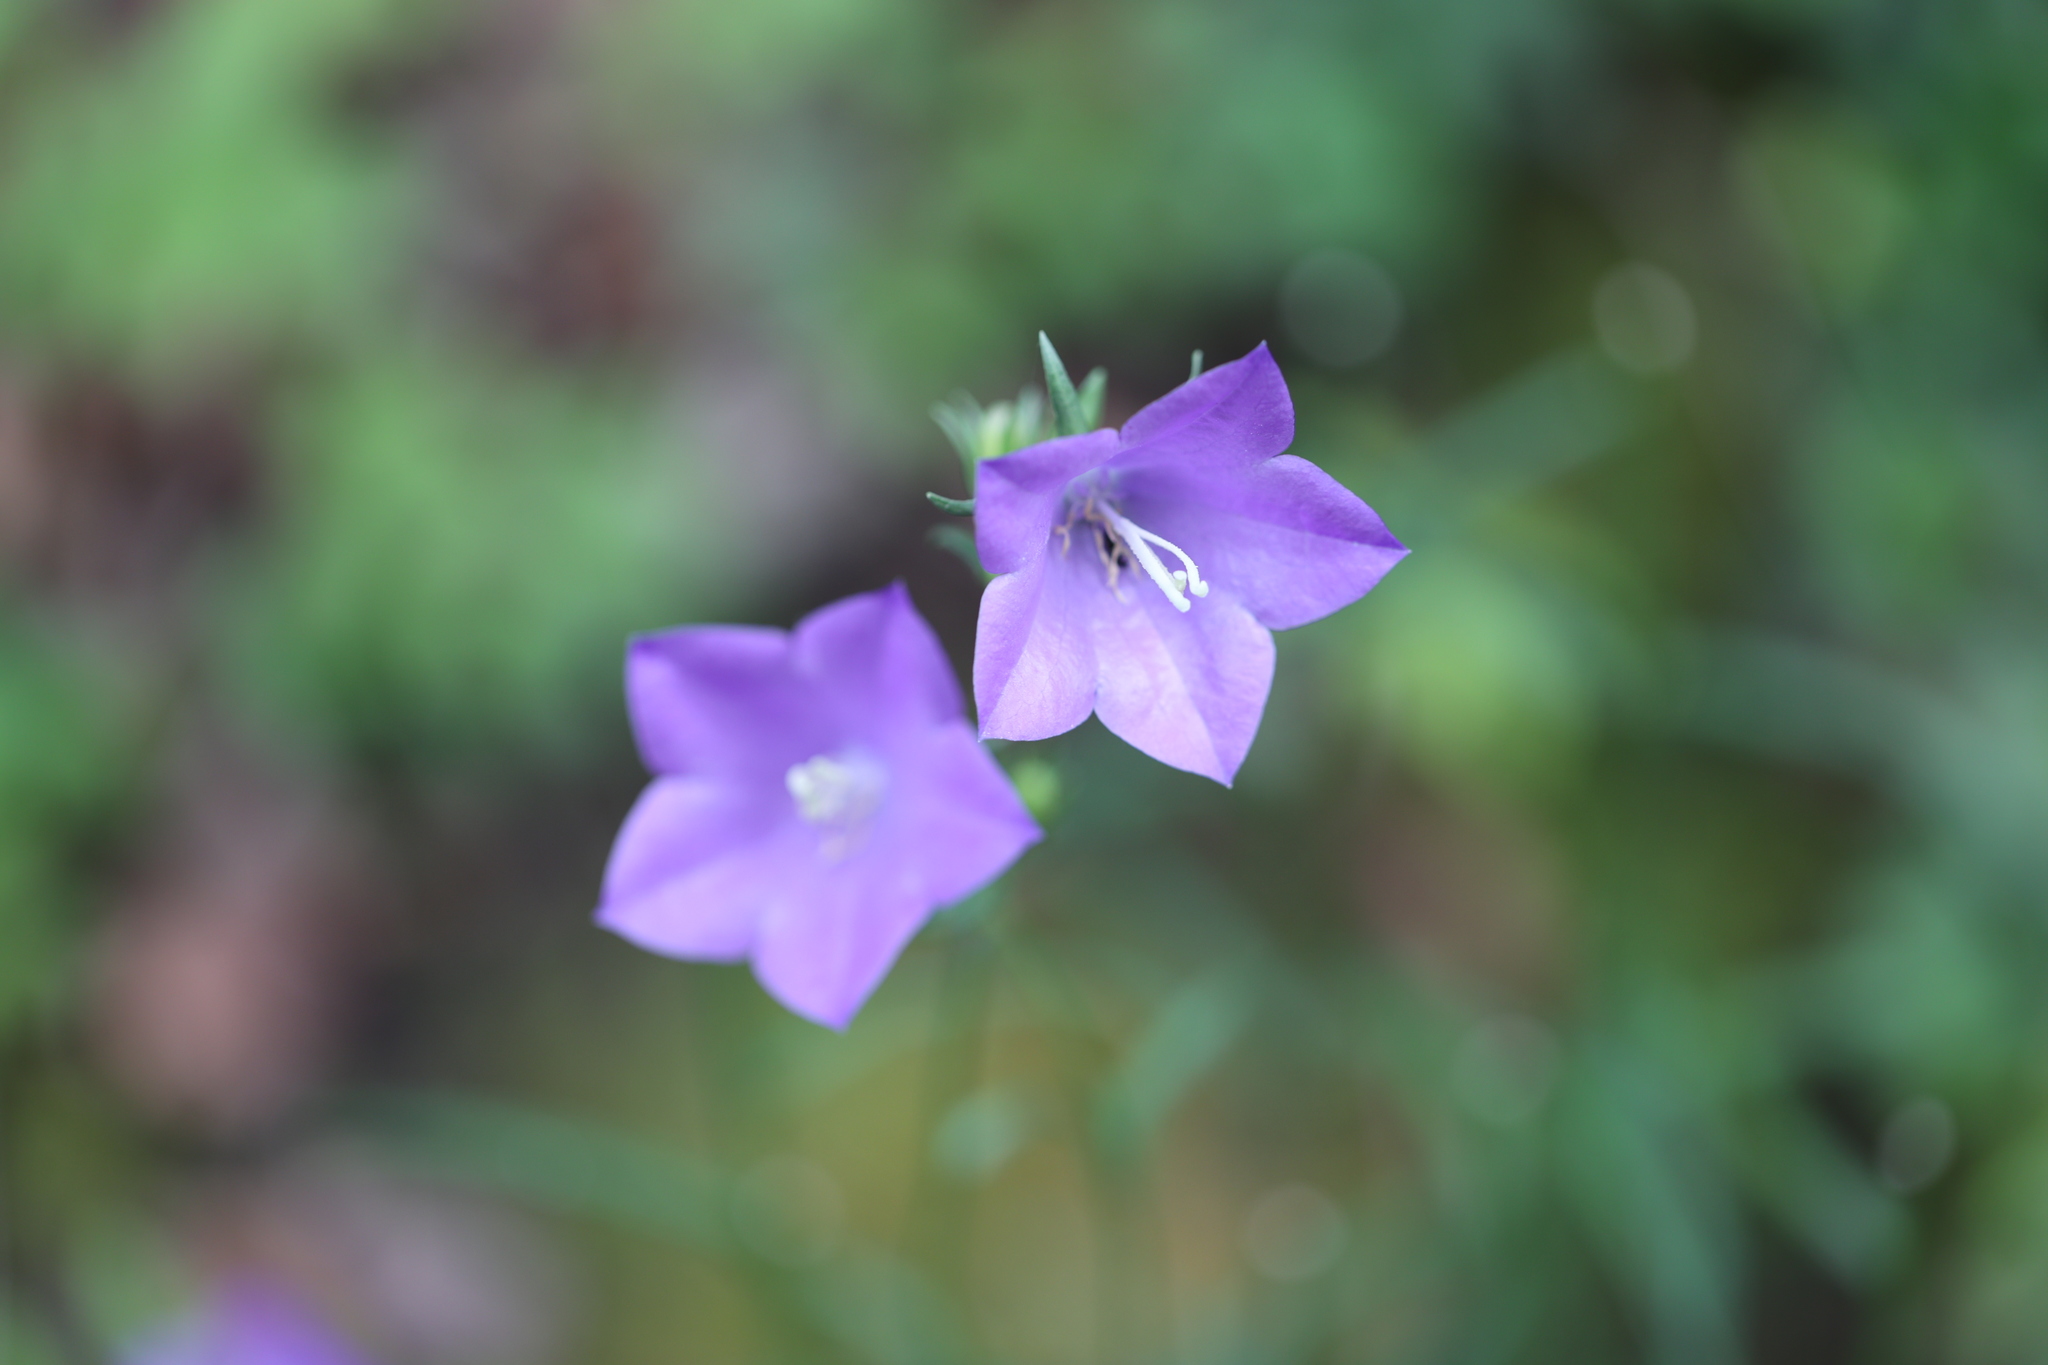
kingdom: Plantae
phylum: Tracheophyta
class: Magnoliopsida
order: Asterales
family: Campanulaceae
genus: Campanula
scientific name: Campanula persicifolia
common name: Peach-leaved bellflower
